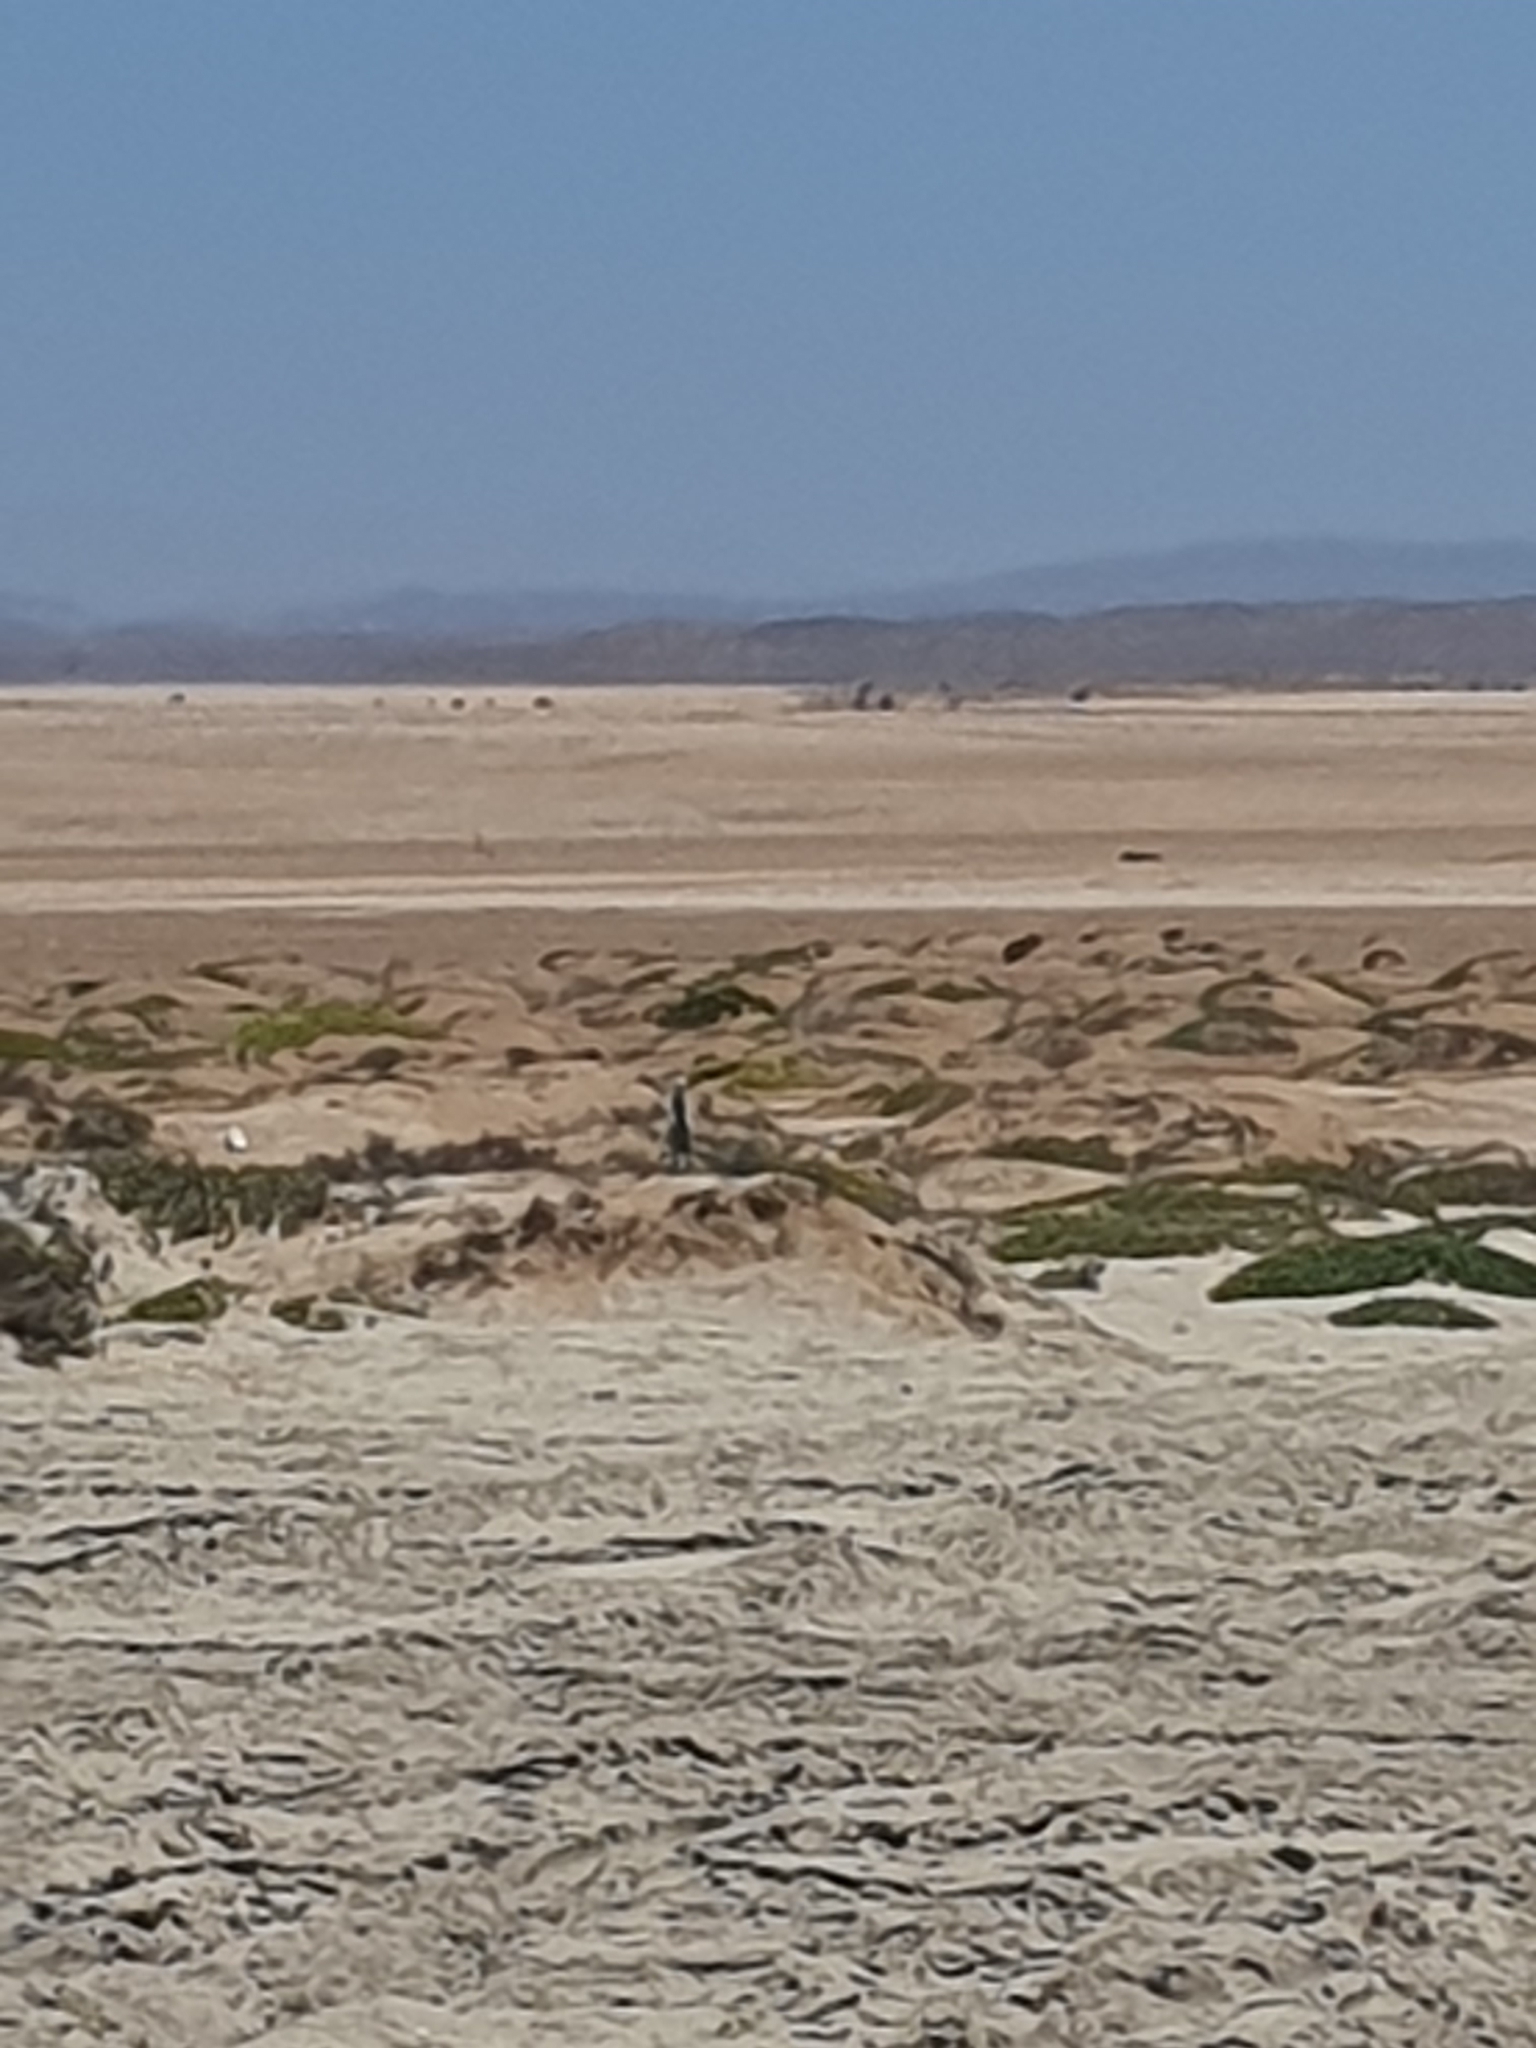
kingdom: Animalia
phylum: Chordata
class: Mammalia
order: Carnivora
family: Herpestidae
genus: Suricata
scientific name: Suricata suricatta
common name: Meerkat
